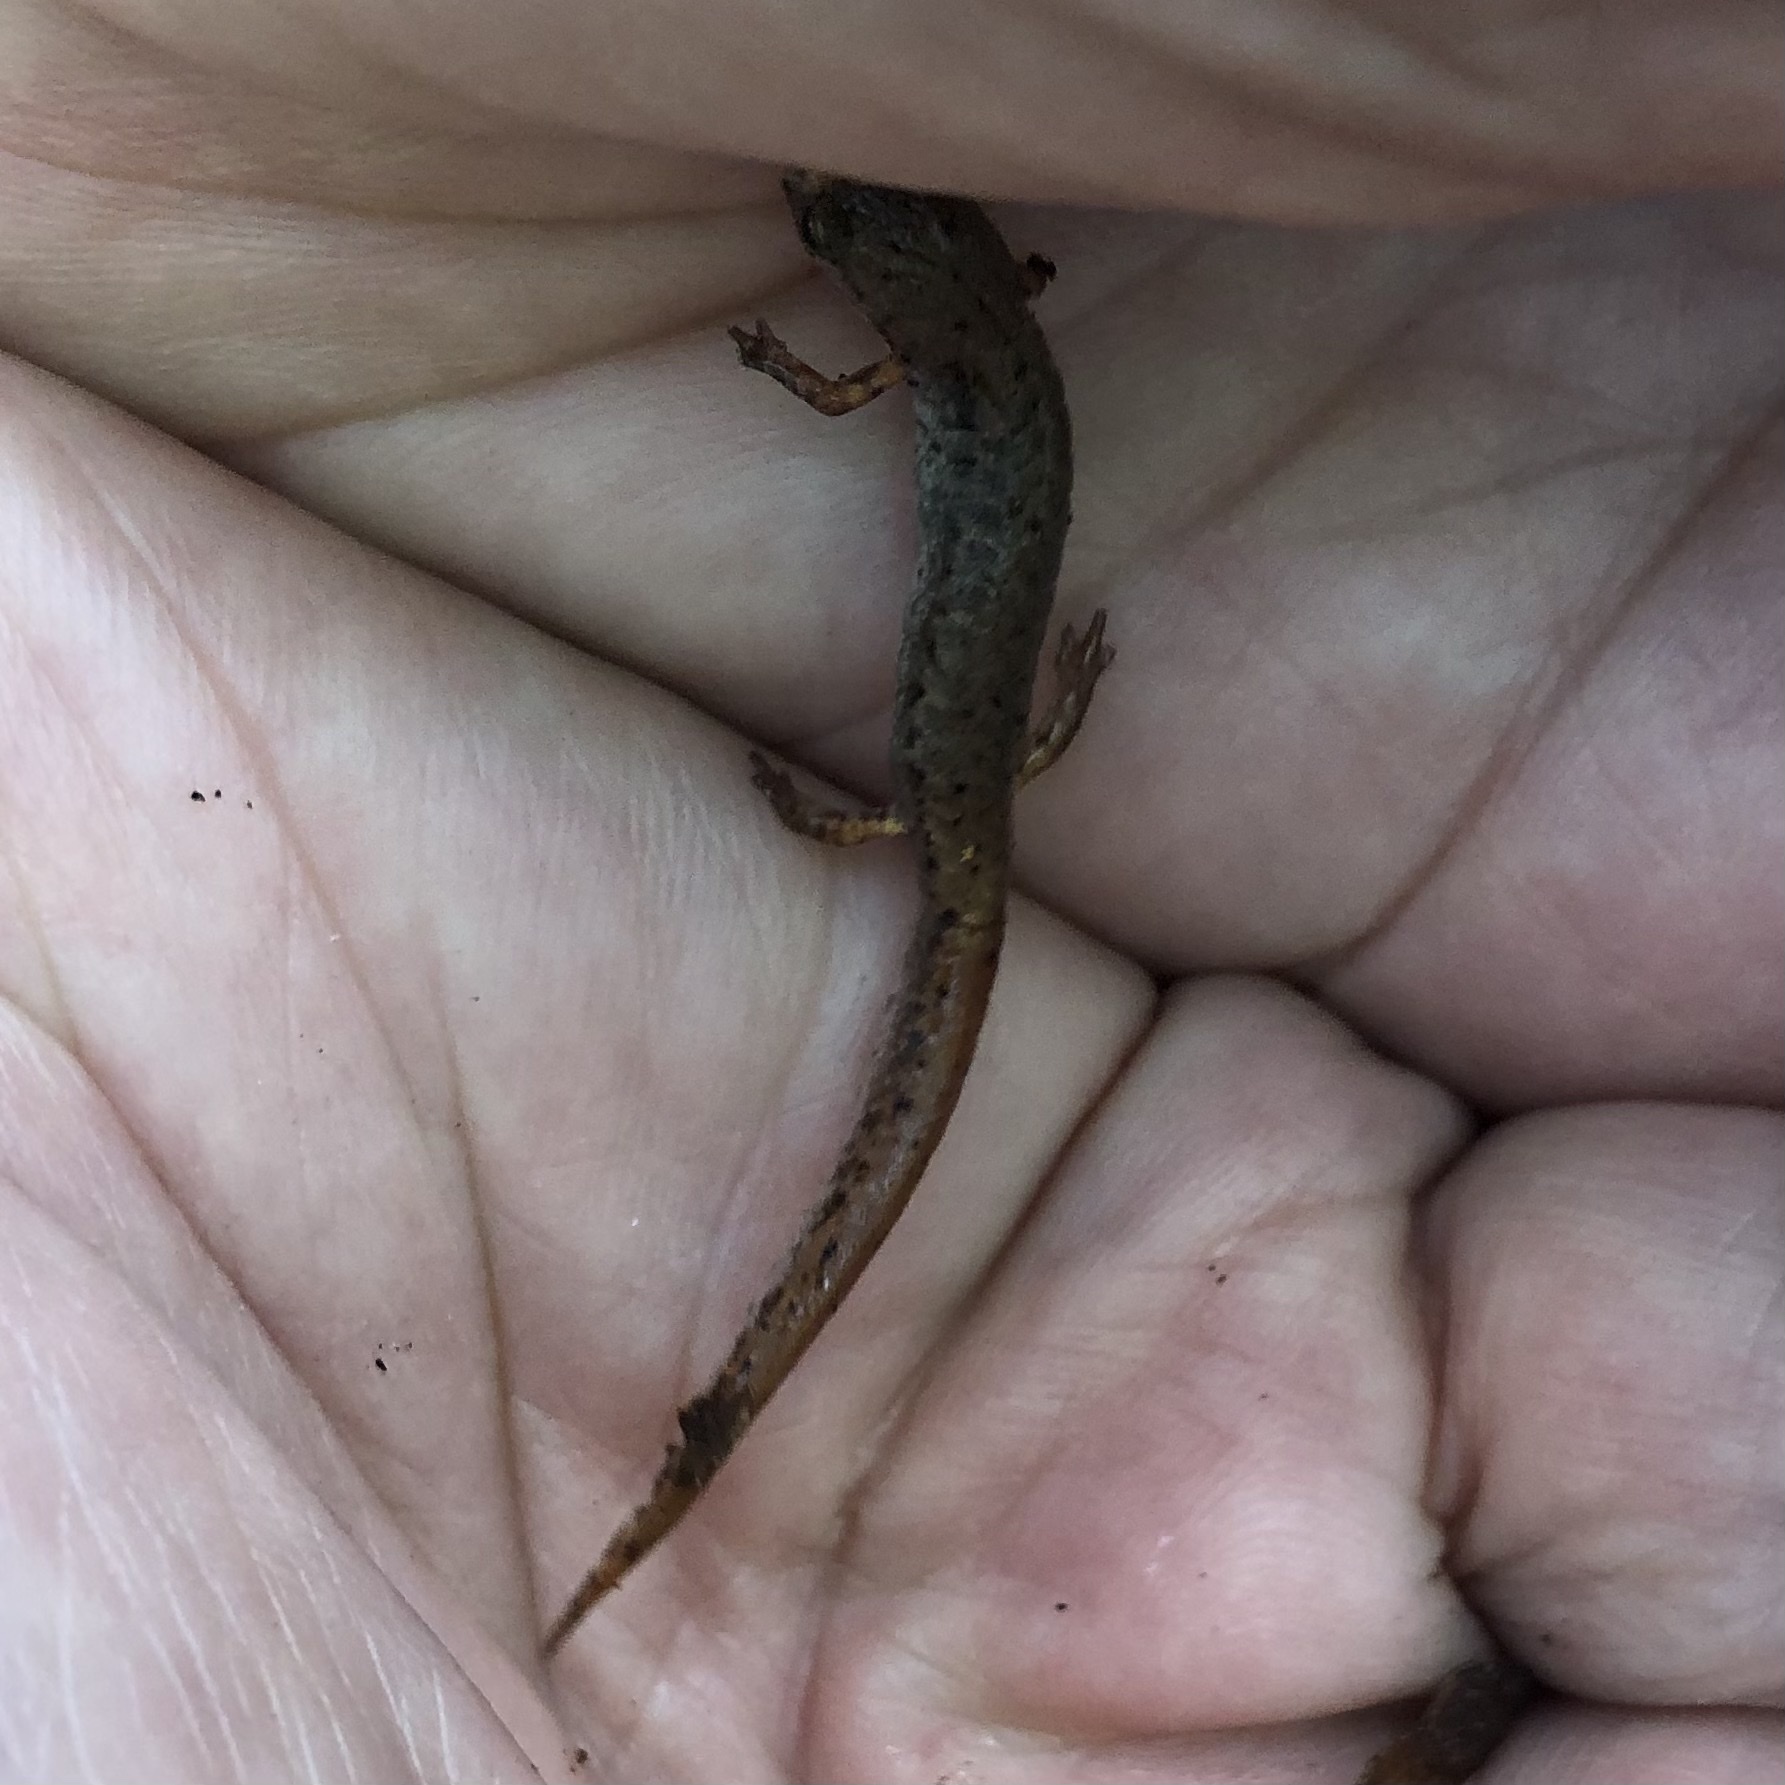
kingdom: Animalia
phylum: Chordata
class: Amphibia
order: Caudata
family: Plethodontidae
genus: Hemidactylium
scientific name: Hemidactylium scutatum
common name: Four-toed salamander
